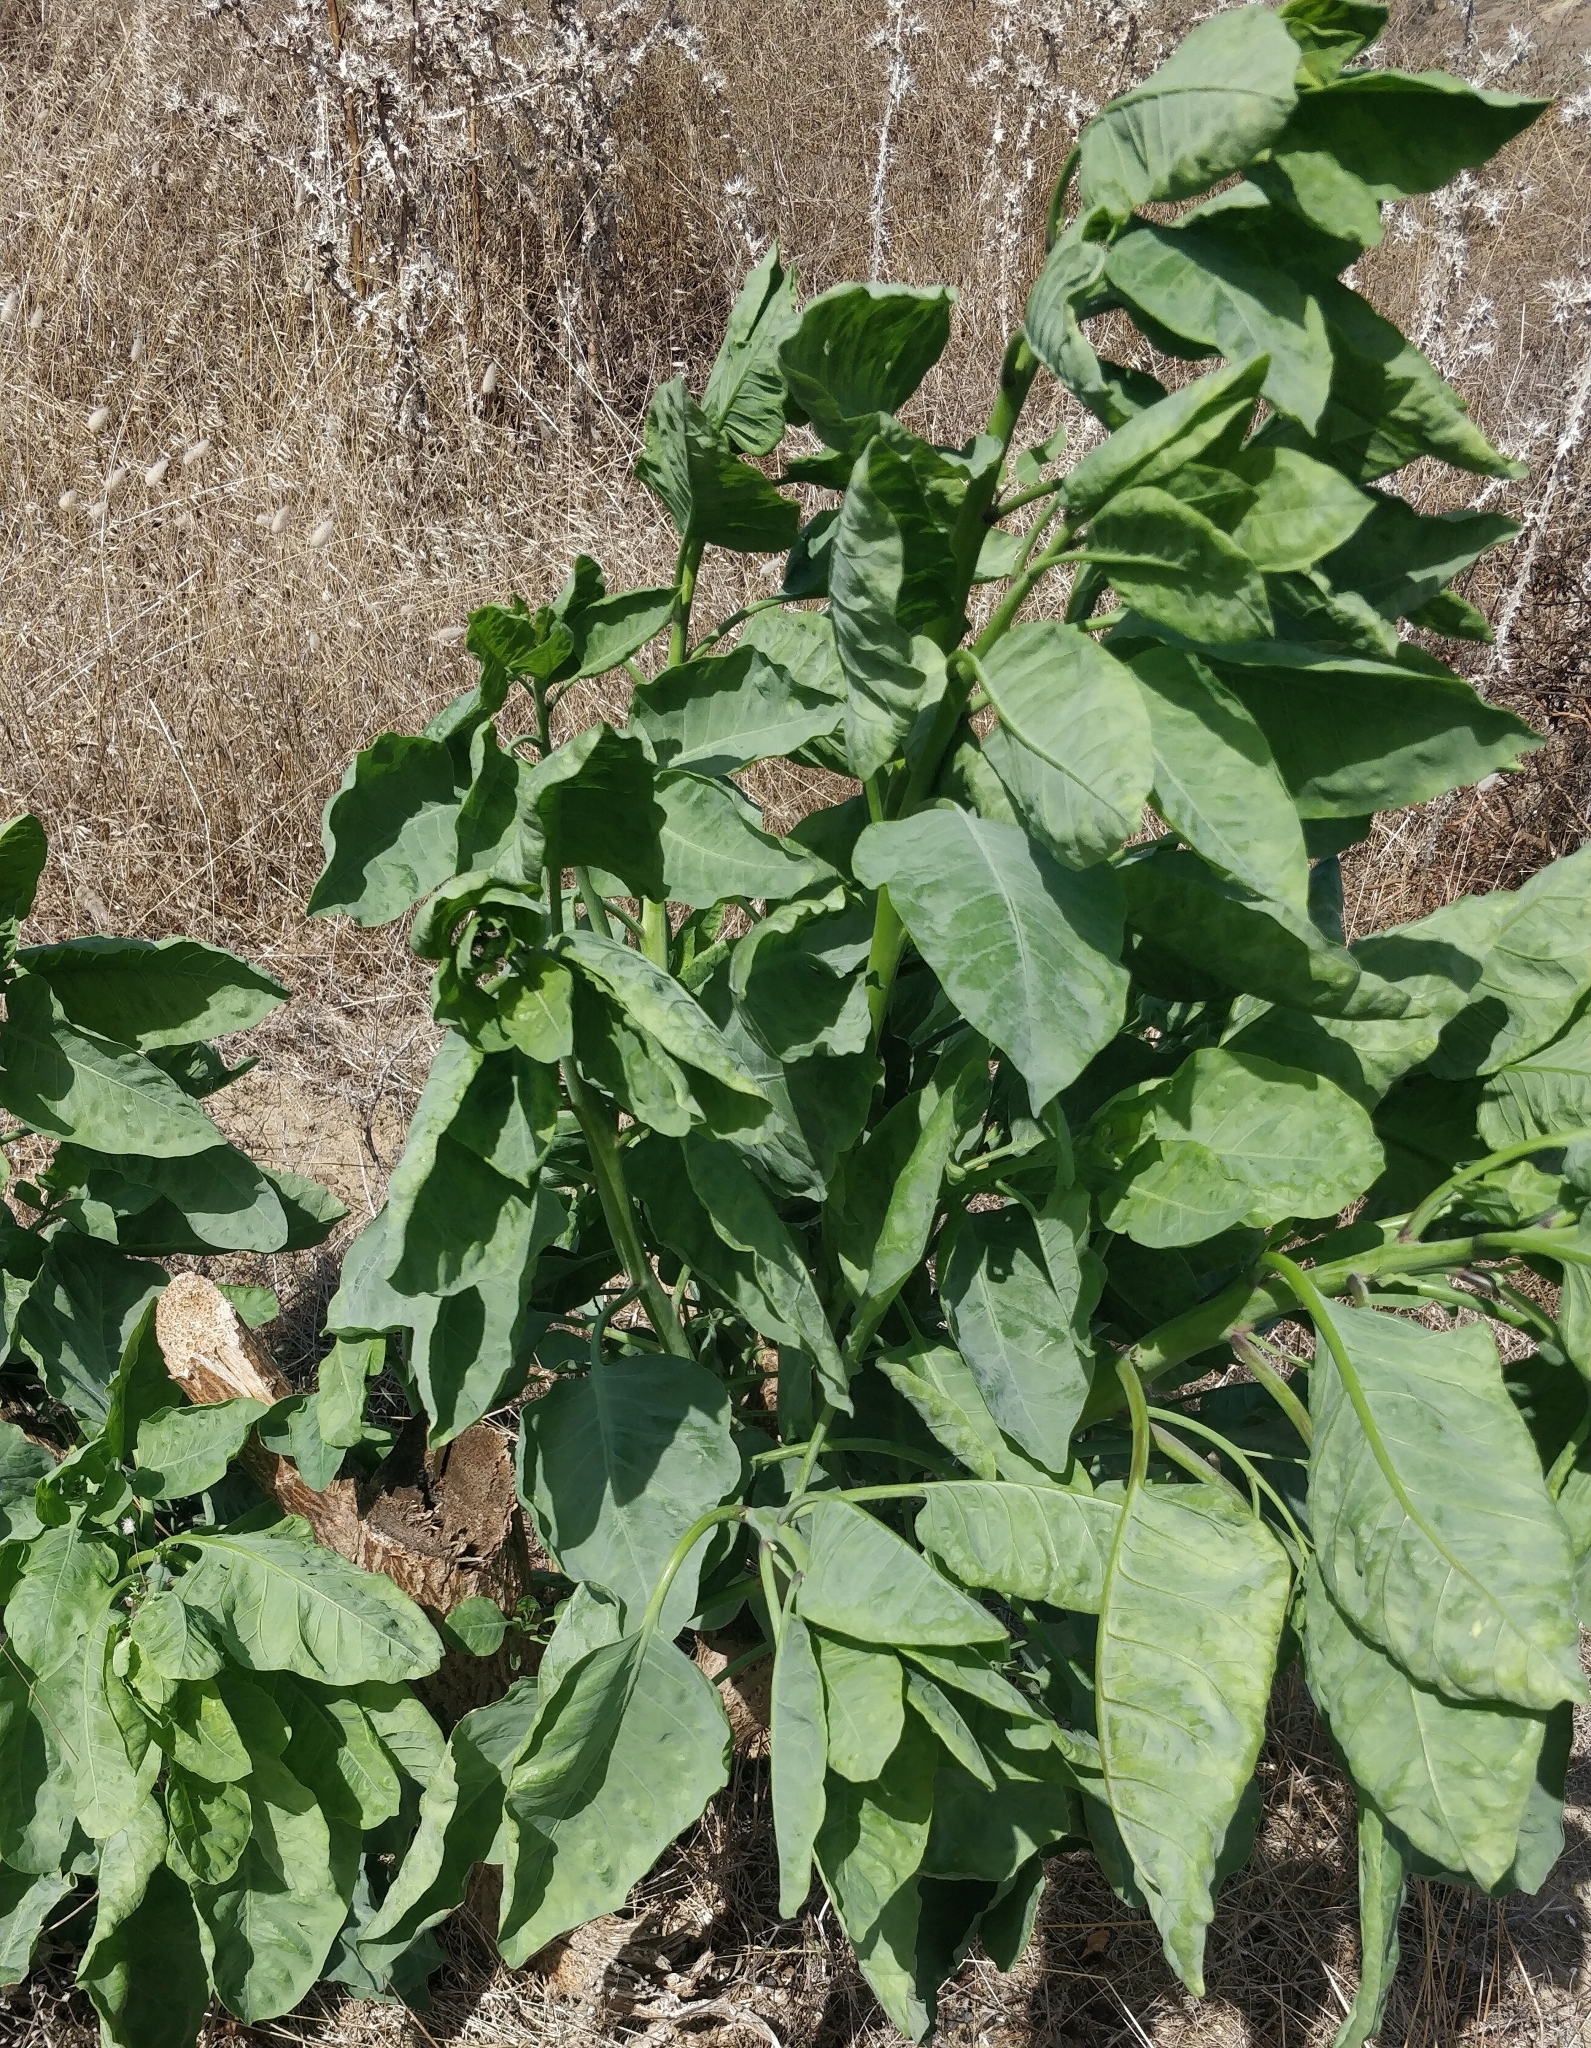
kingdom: Plantae
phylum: Tracheophyta
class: Magnoliopsida
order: Solanales
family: Solanaceae
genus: Nicotiana
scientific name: Nicotiana glauca
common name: Tree tobacco
